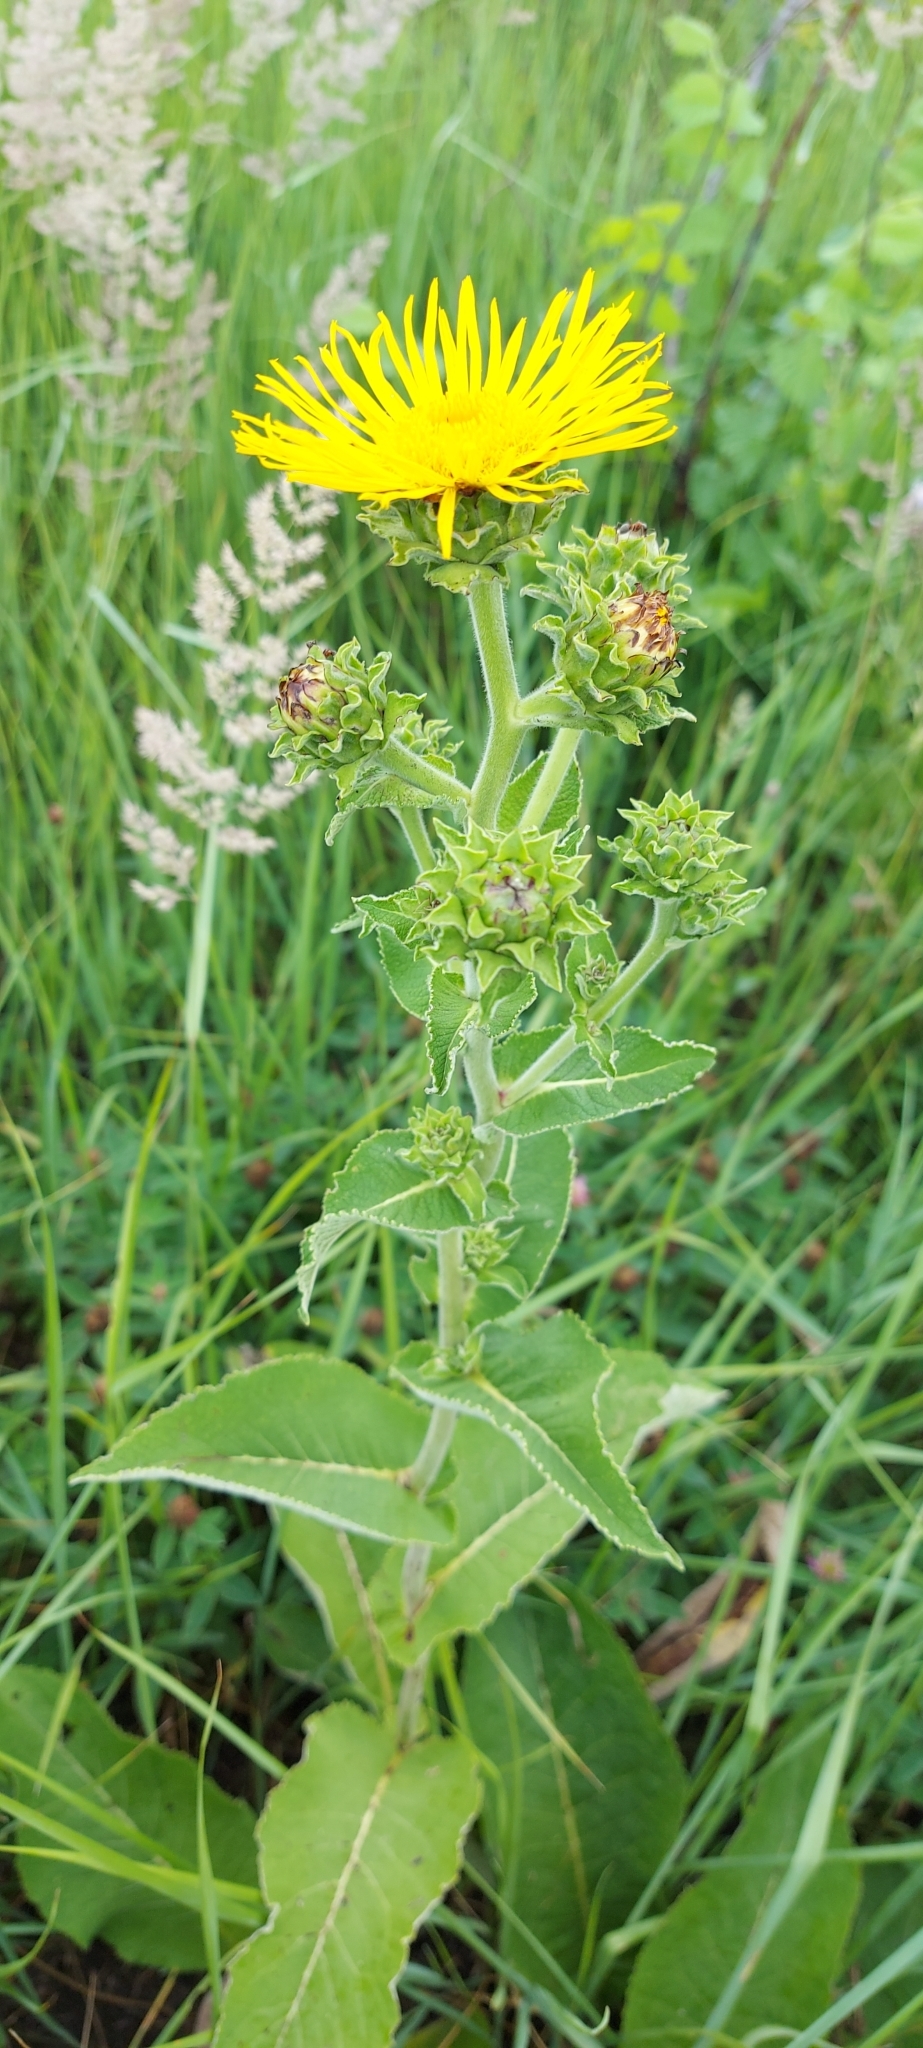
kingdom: Plantae
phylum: Tracheophyta
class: Magnoliopsida
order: Asterales
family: Asteraceae
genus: Inula
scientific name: Inula helenium
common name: Elecampane
